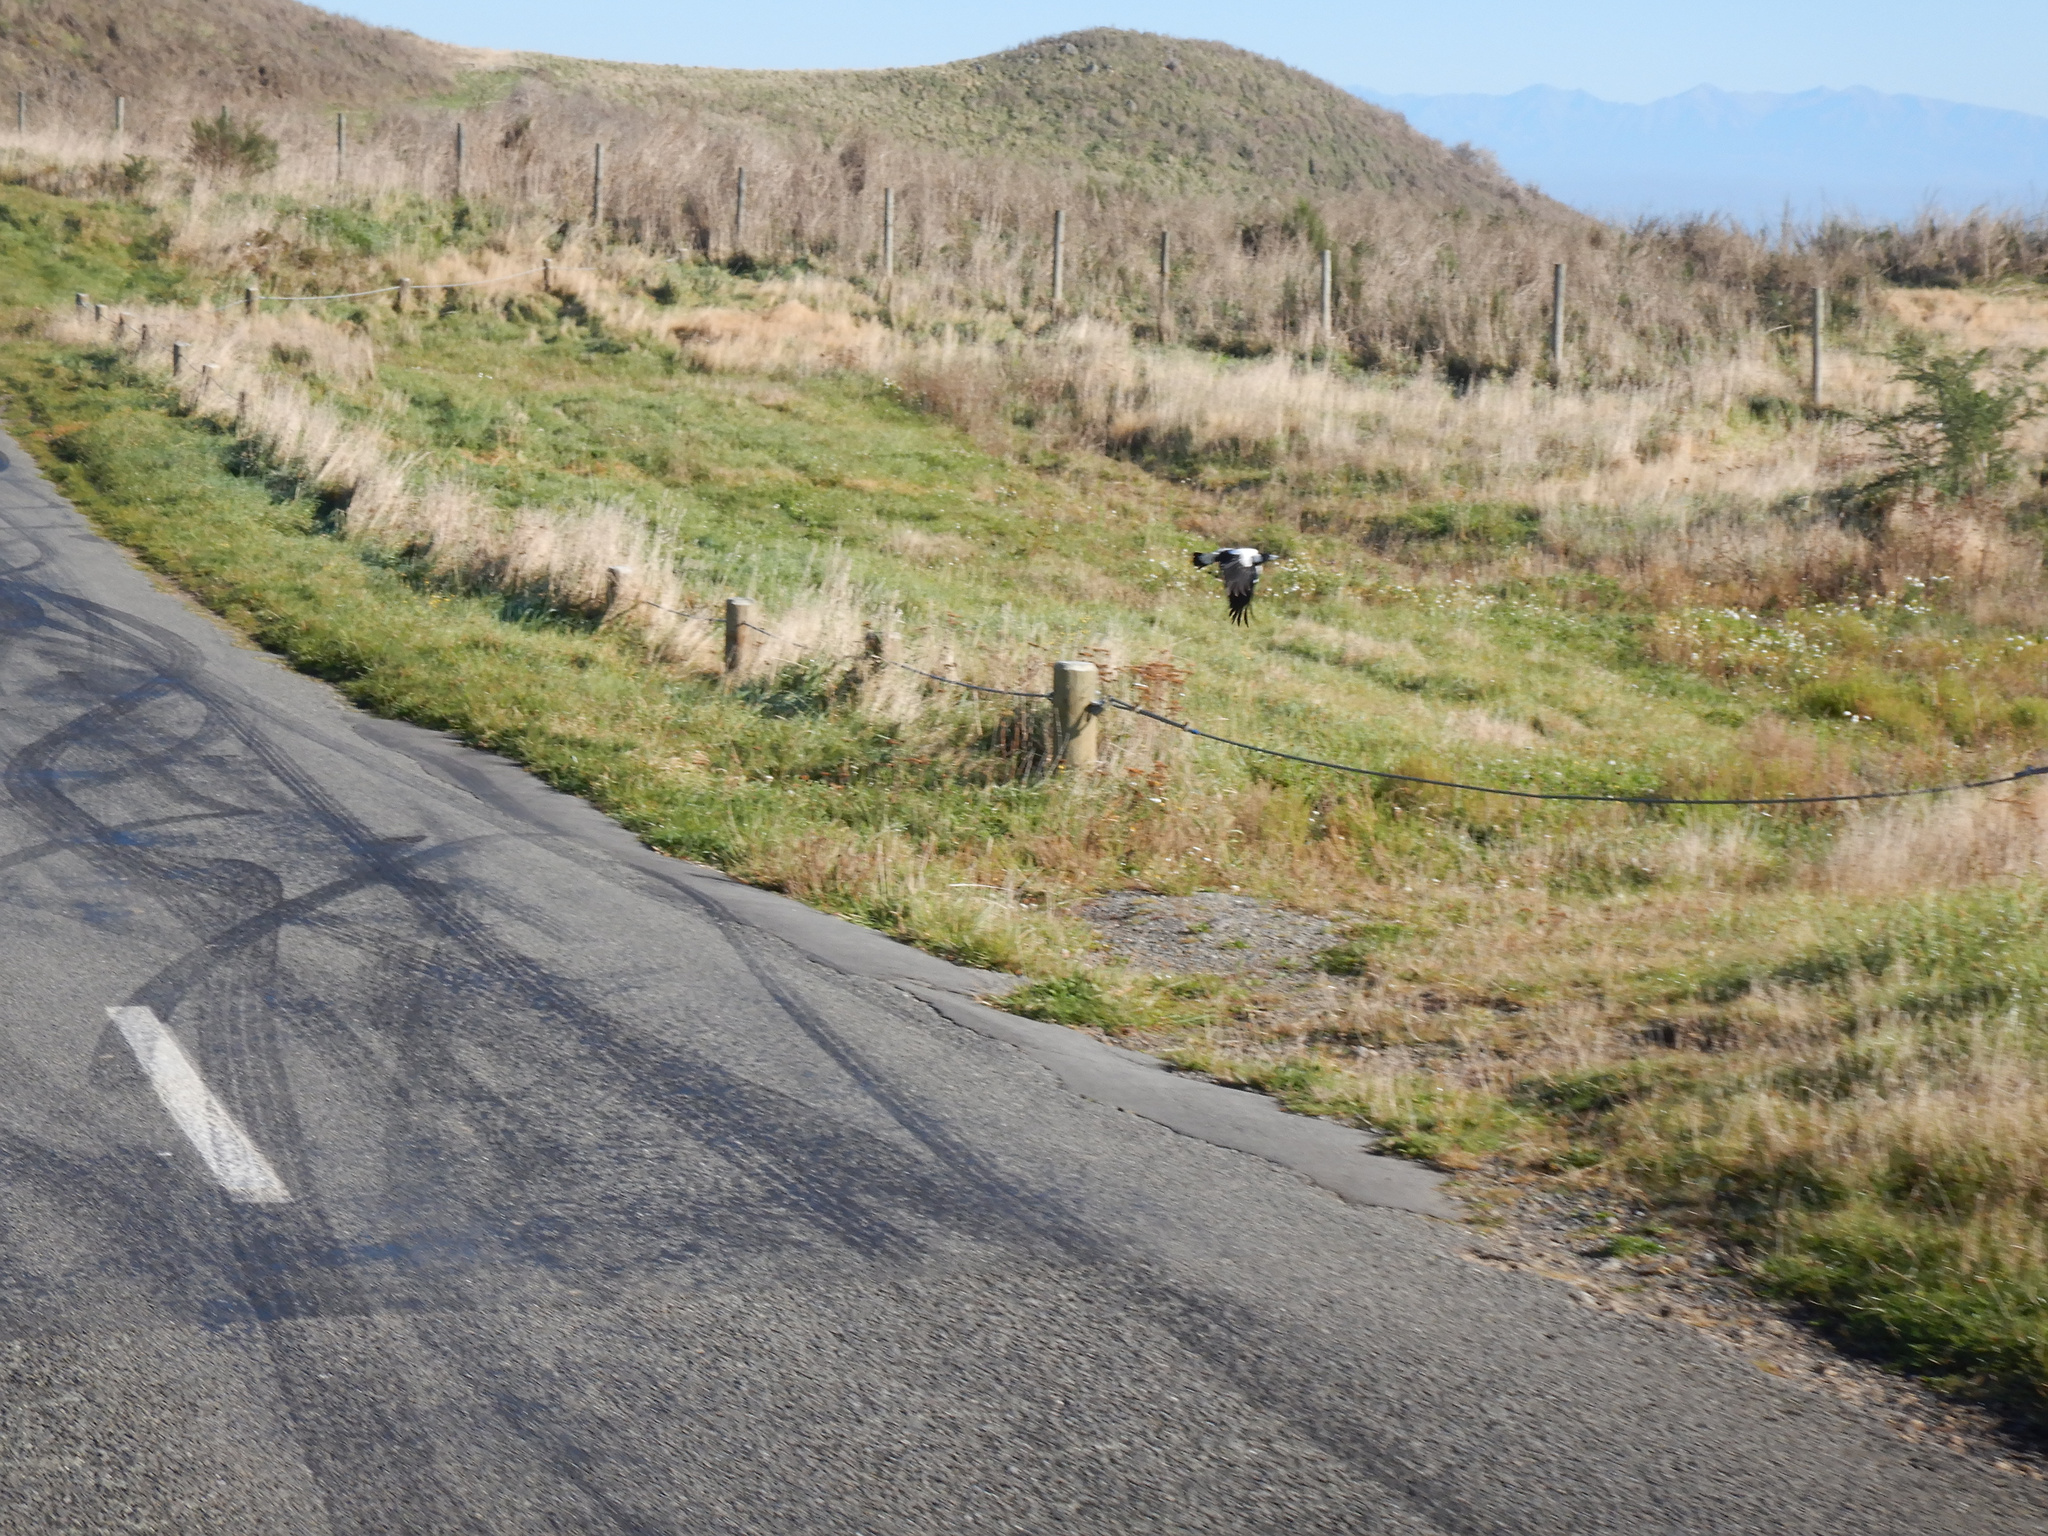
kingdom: Animalia
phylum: Chordata
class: Aves
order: Passeriformes
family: Cracticidae
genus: Gymnorhina
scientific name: Gymnorhina tibicen
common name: Australian magpie
